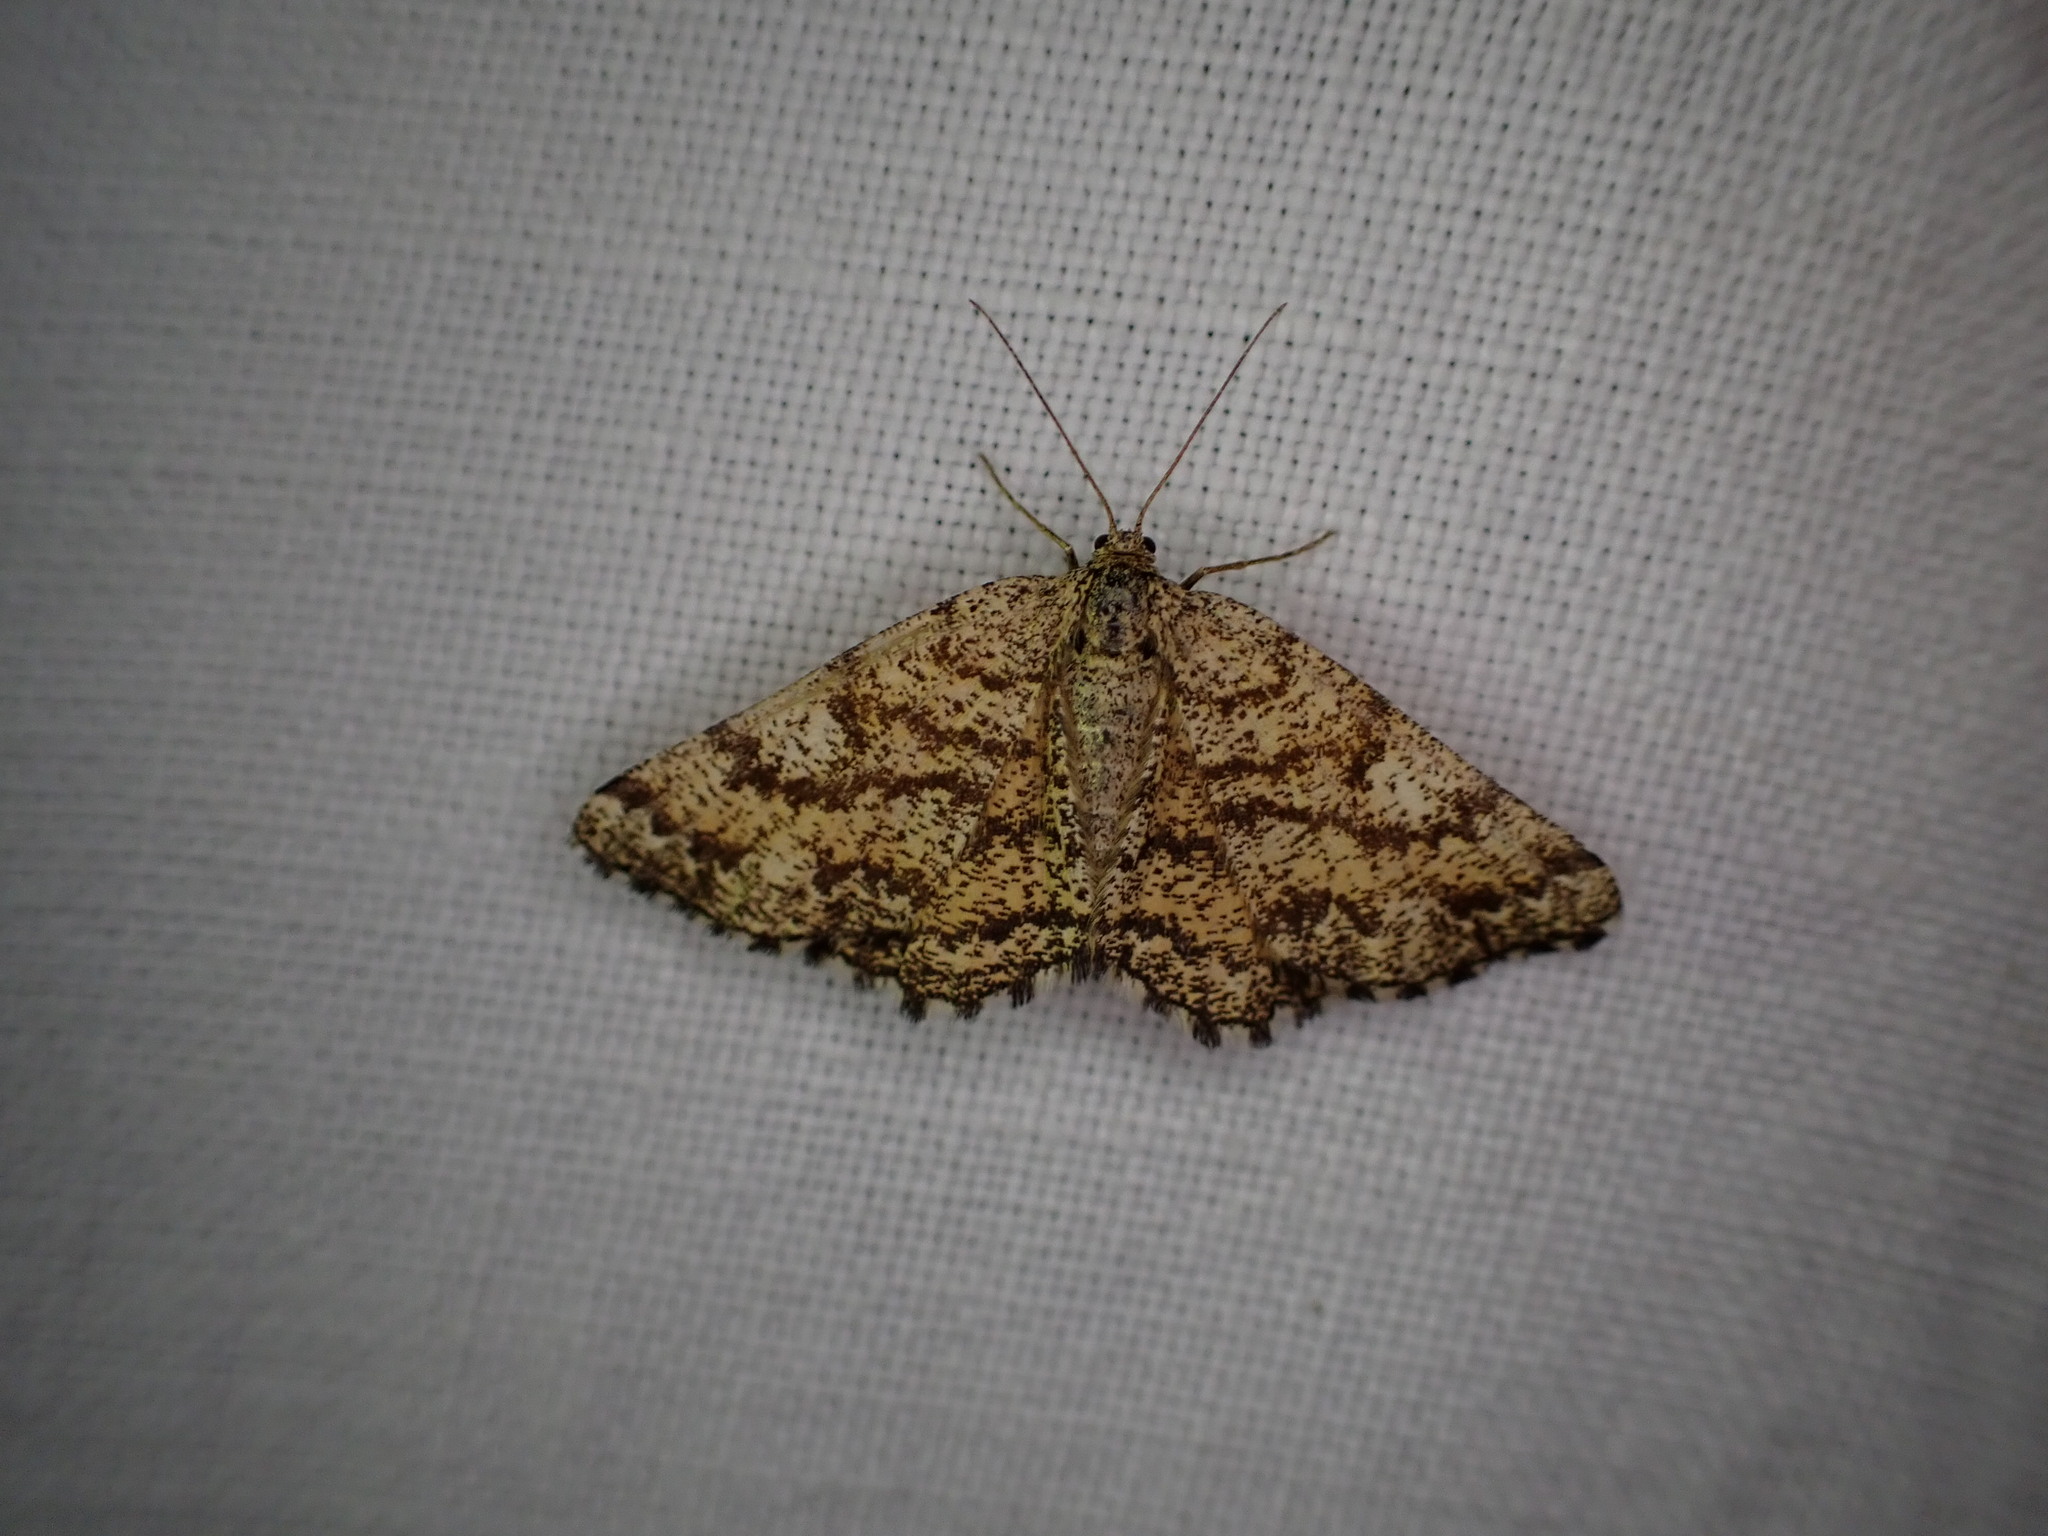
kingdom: Animalia
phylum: Arthropoda
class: Insecta
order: Lepidoptera
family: Geometridae
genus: Ematurga
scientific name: Ematurga atomaria
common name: Common heath
